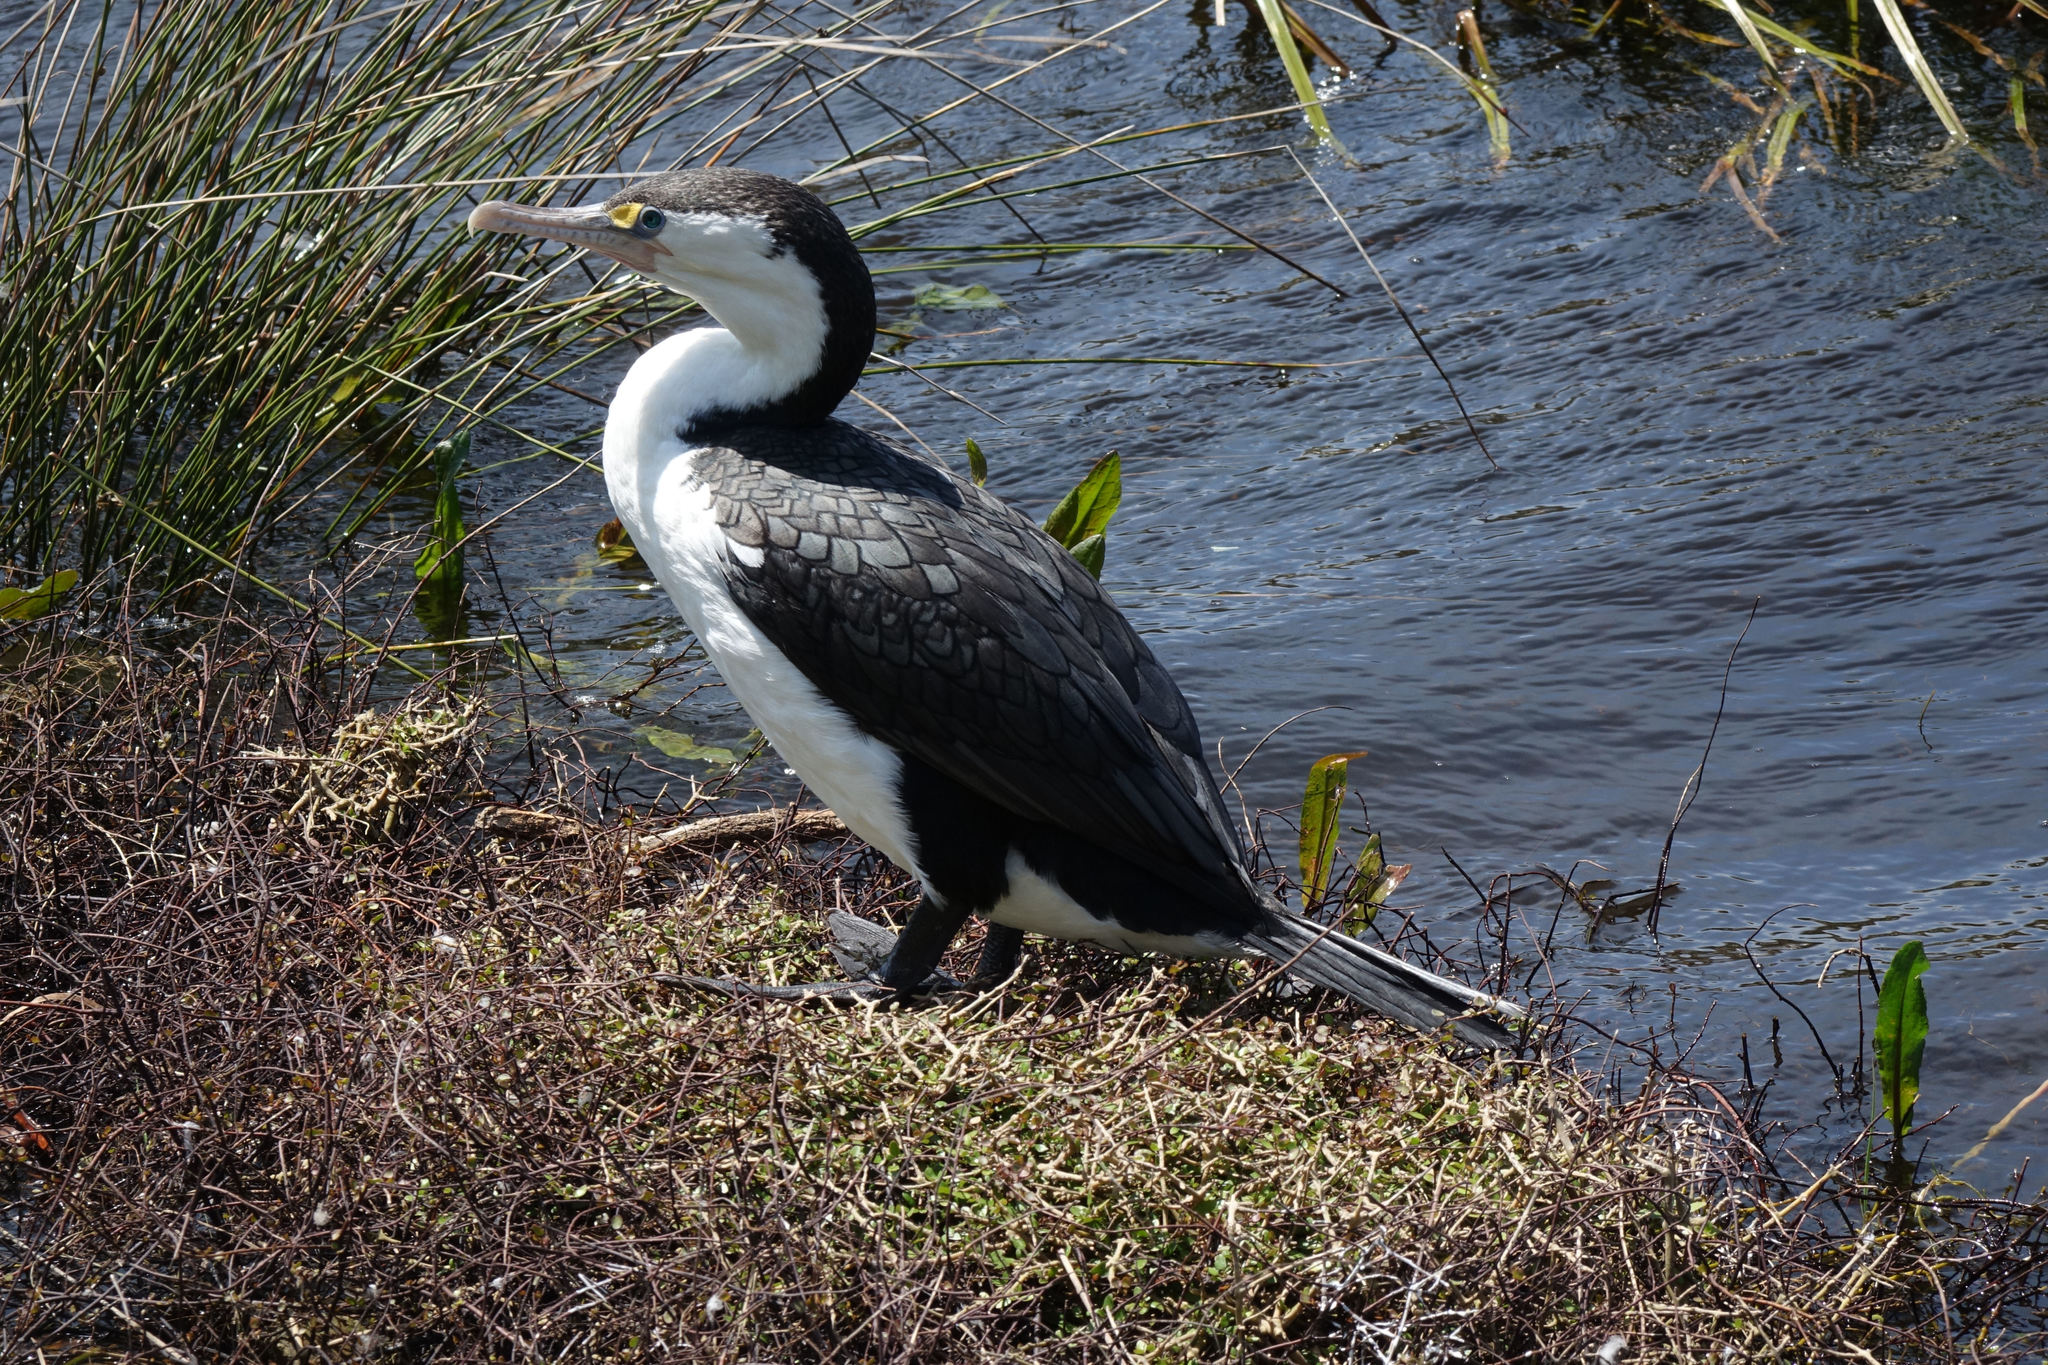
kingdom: Animalia
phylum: Chordata
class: Aves
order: Suliformes
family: Phalacrocoracidae
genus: Phalacrocorax
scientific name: Phalacrocorax varius
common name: Pied cormorant
